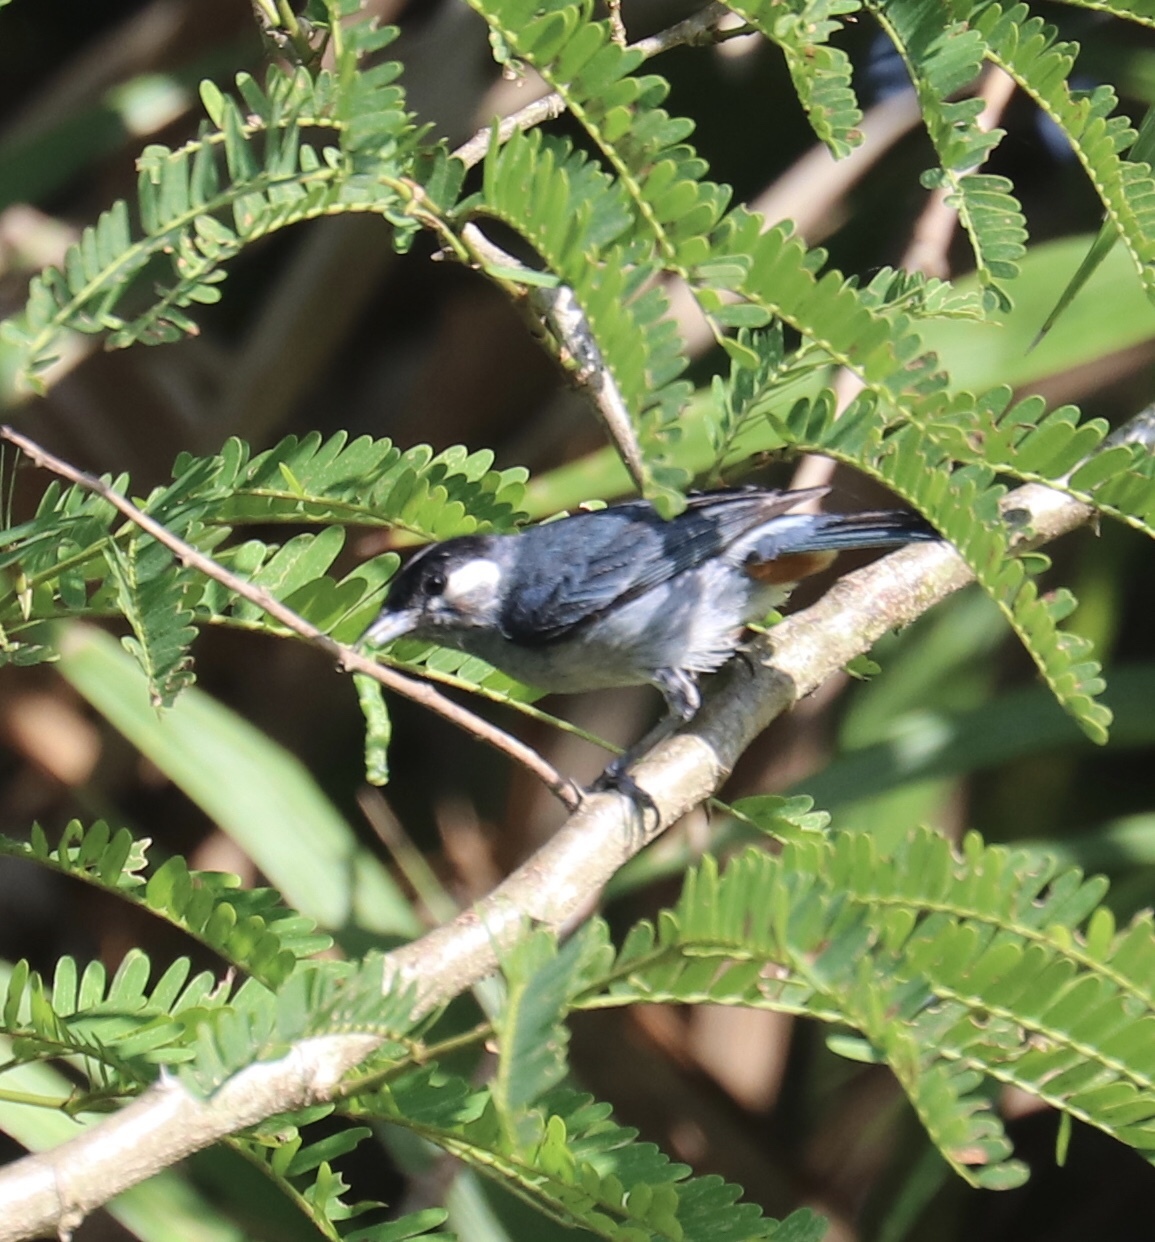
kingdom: Animalia
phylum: Chordata
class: Aves
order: Passeriformes
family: Thraupidae
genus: Conirostrum
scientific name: Conirostrum leucogenys
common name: White-eared conebill
